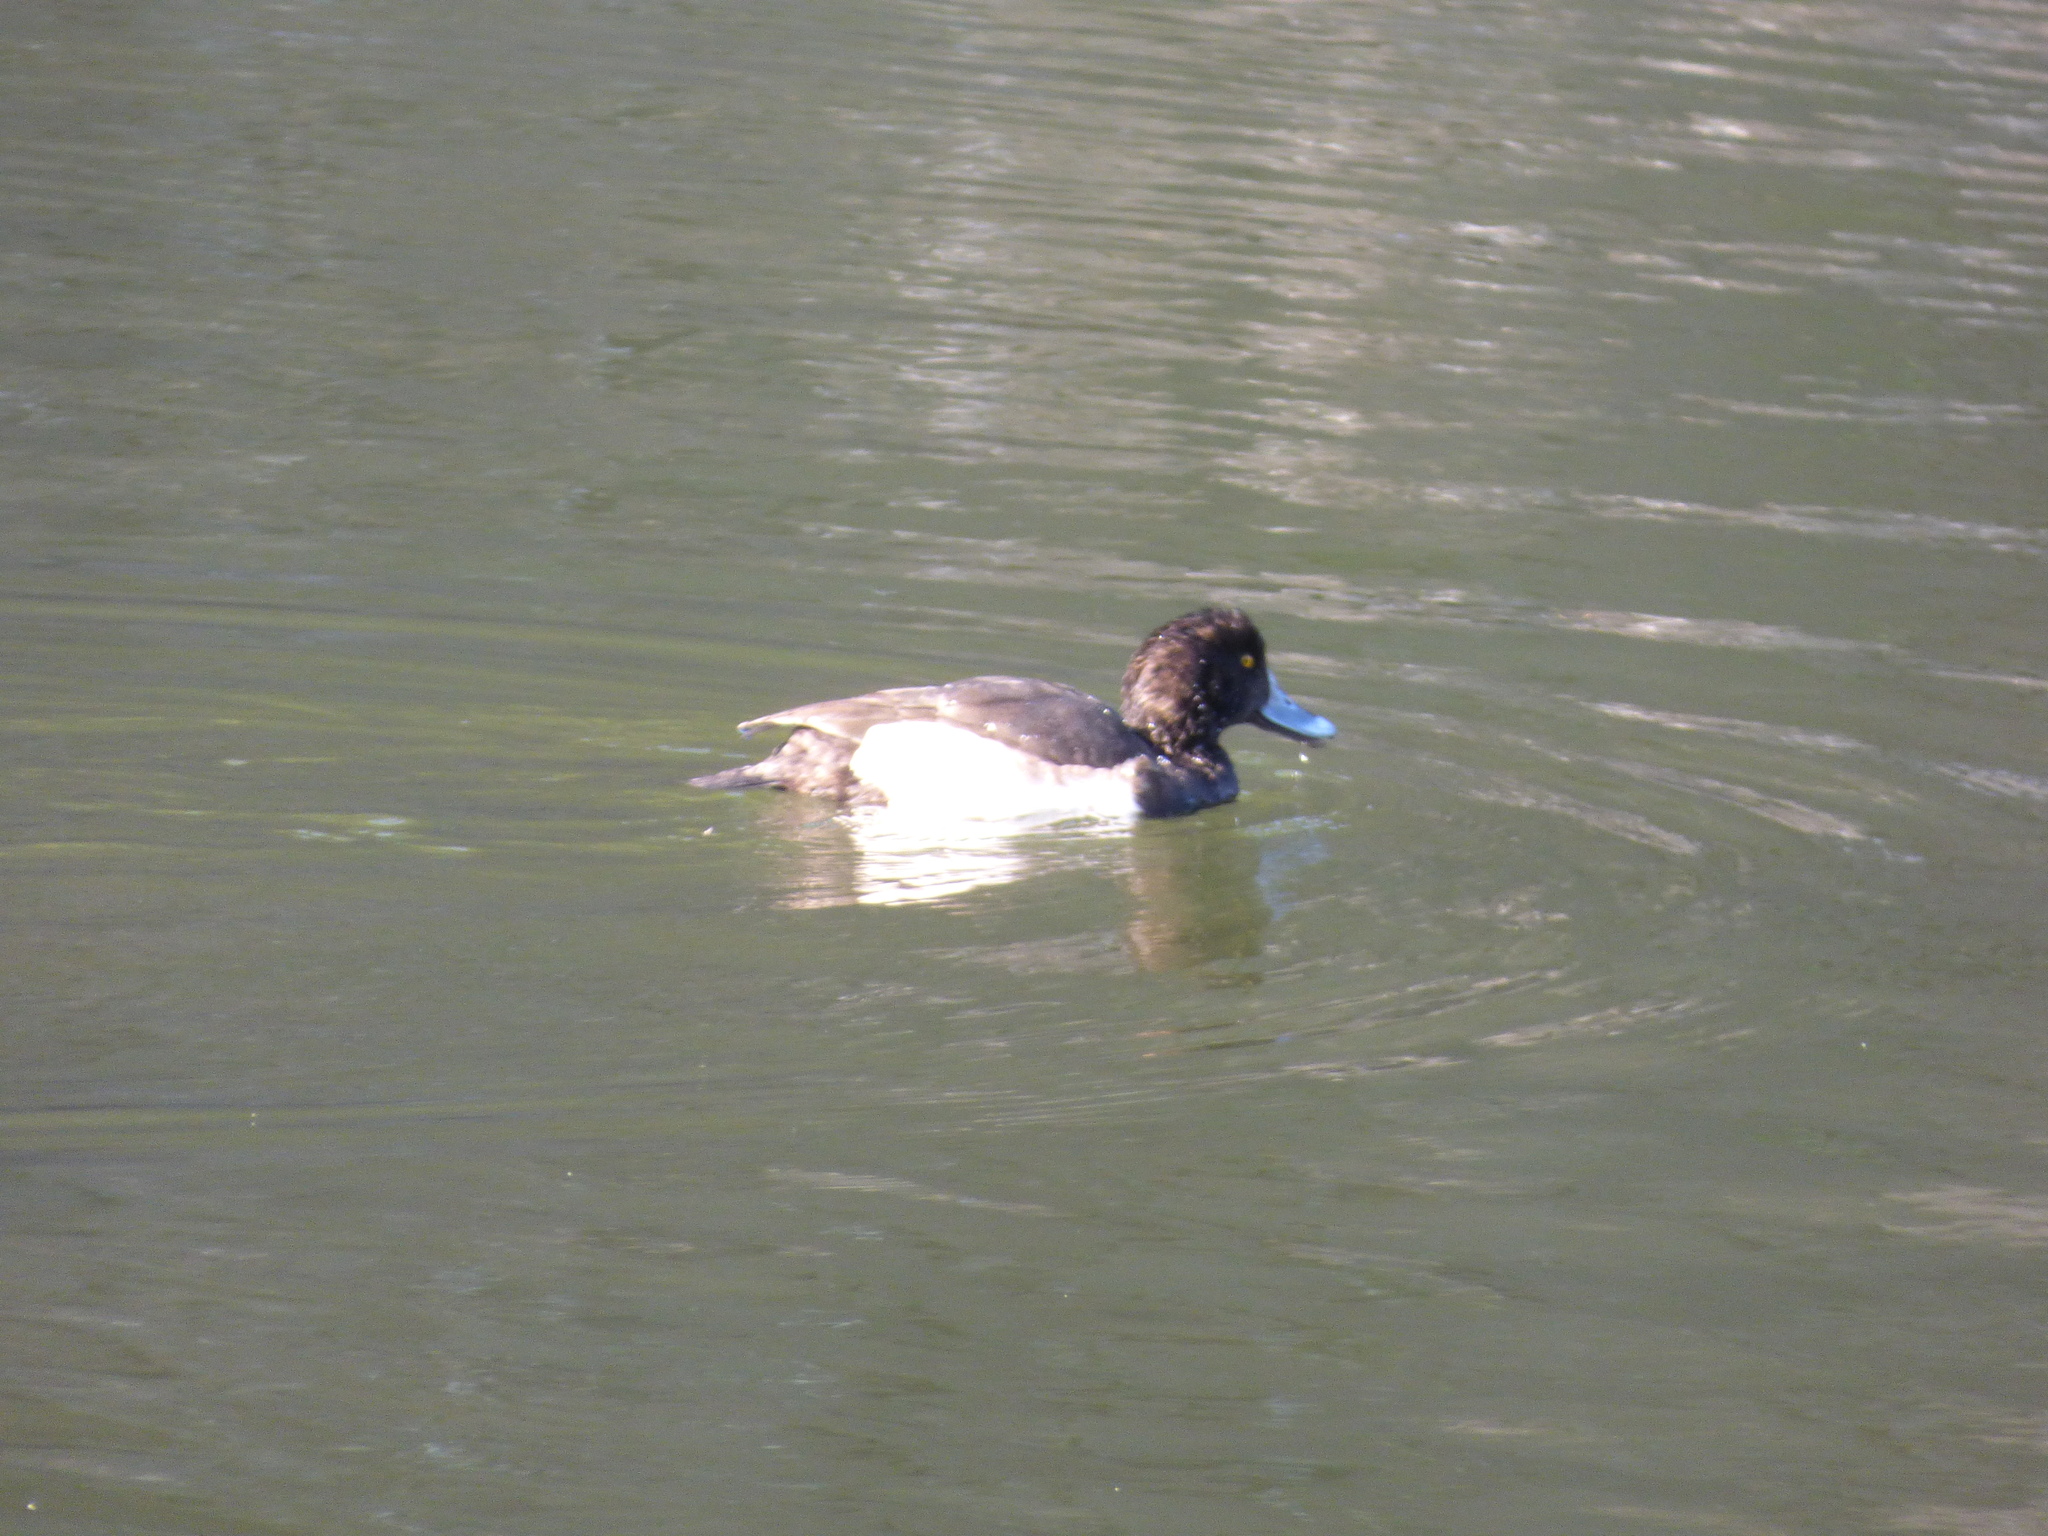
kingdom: Animalia
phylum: Chordata
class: Aves
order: Anseriformes
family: Anatidae
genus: Aythya
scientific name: Aythya fuligula
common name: Tufted duck
